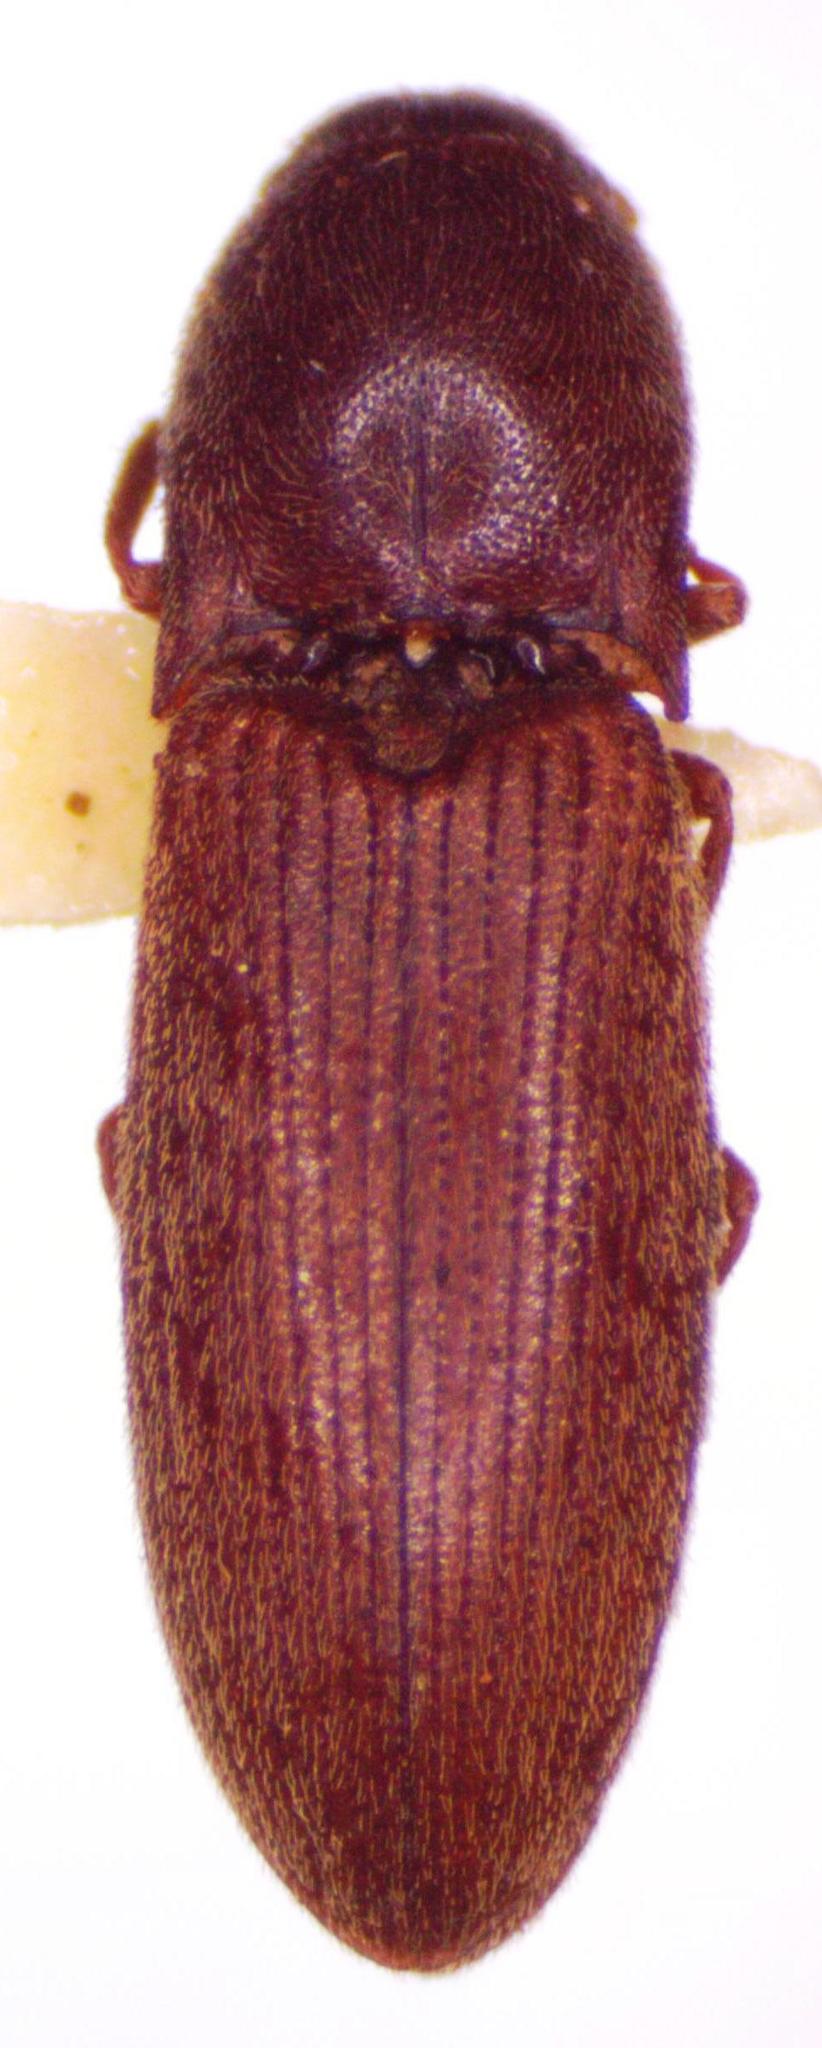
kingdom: Animalia
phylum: Arthropoda
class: Insecta
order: Coleoptera
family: Elateridae
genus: Agriotes
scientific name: Agriotes sputator
